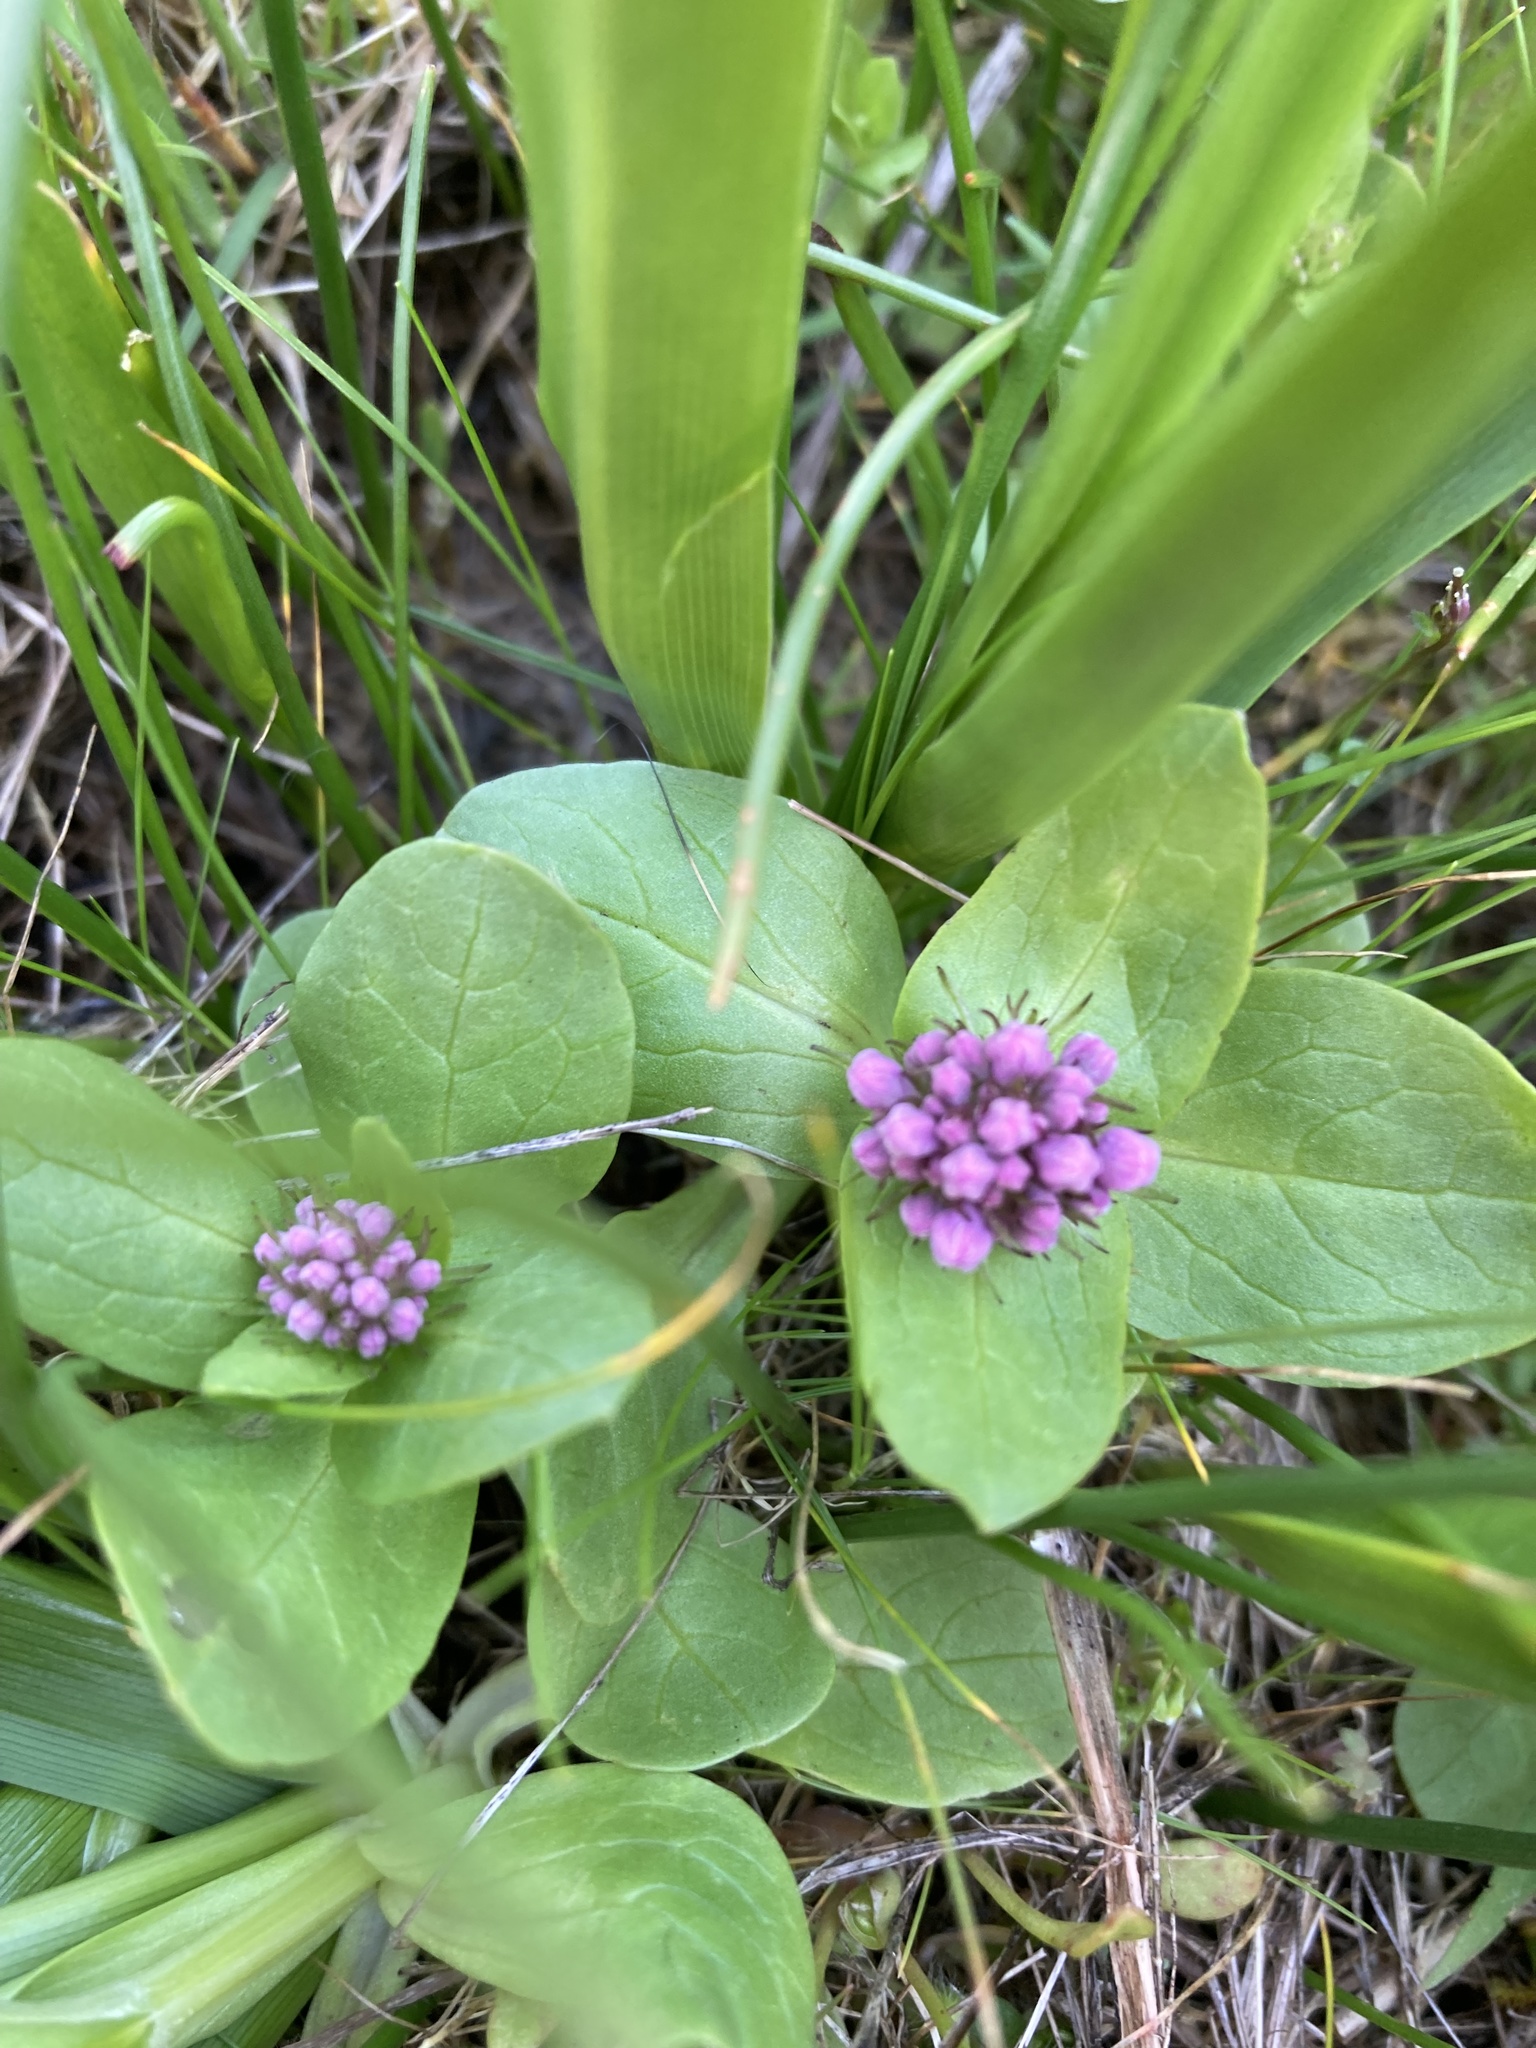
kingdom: Plantae
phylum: Tracheophyta
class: Magnoliopsida
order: Dipsacales
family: Caprifoliaceae
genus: Plectritis
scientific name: Plectritis congesta
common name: Pink plectritis
